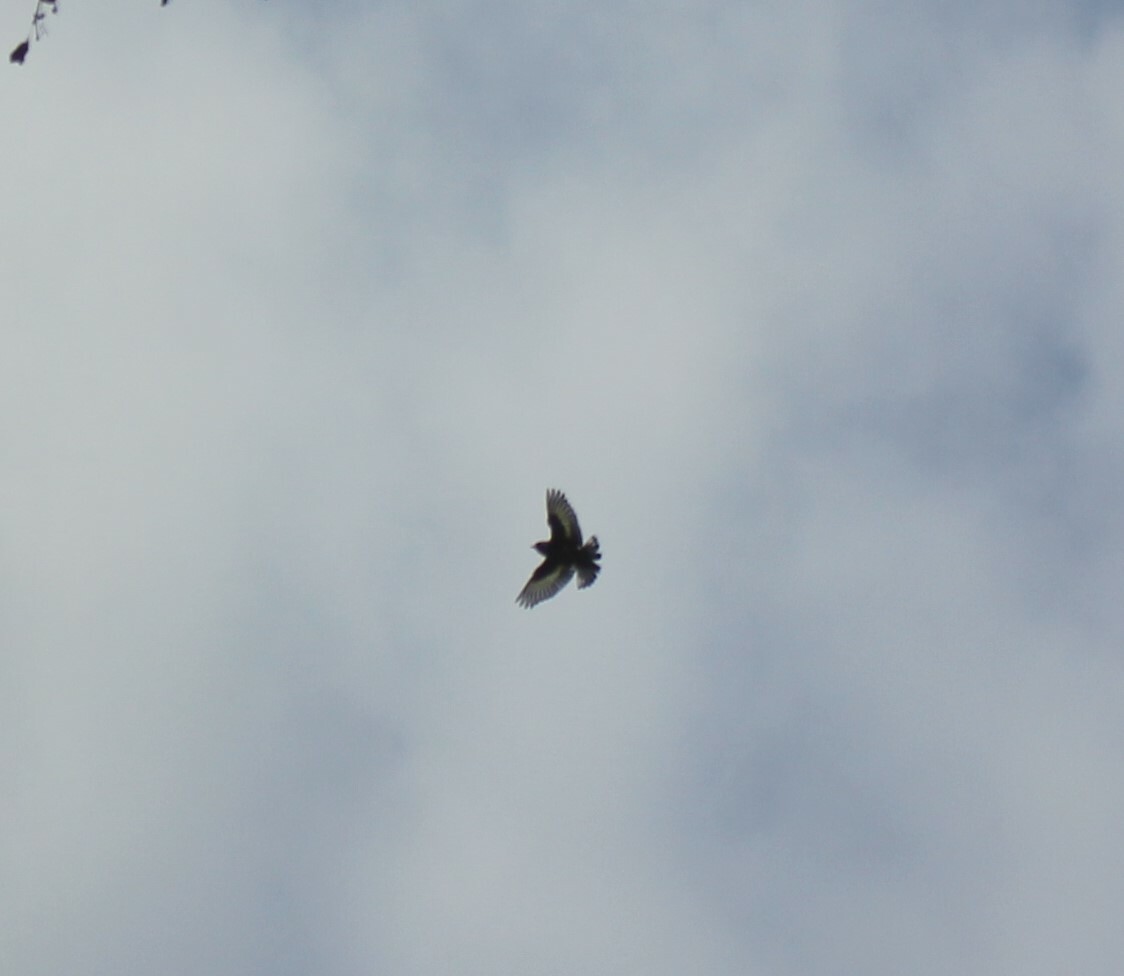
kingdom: Animalia
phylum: Chordata
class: Aves
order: Passeriformes
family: Fringillidae
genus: Carduelis
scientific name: Carduelis carduelis
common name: European goldfinch
